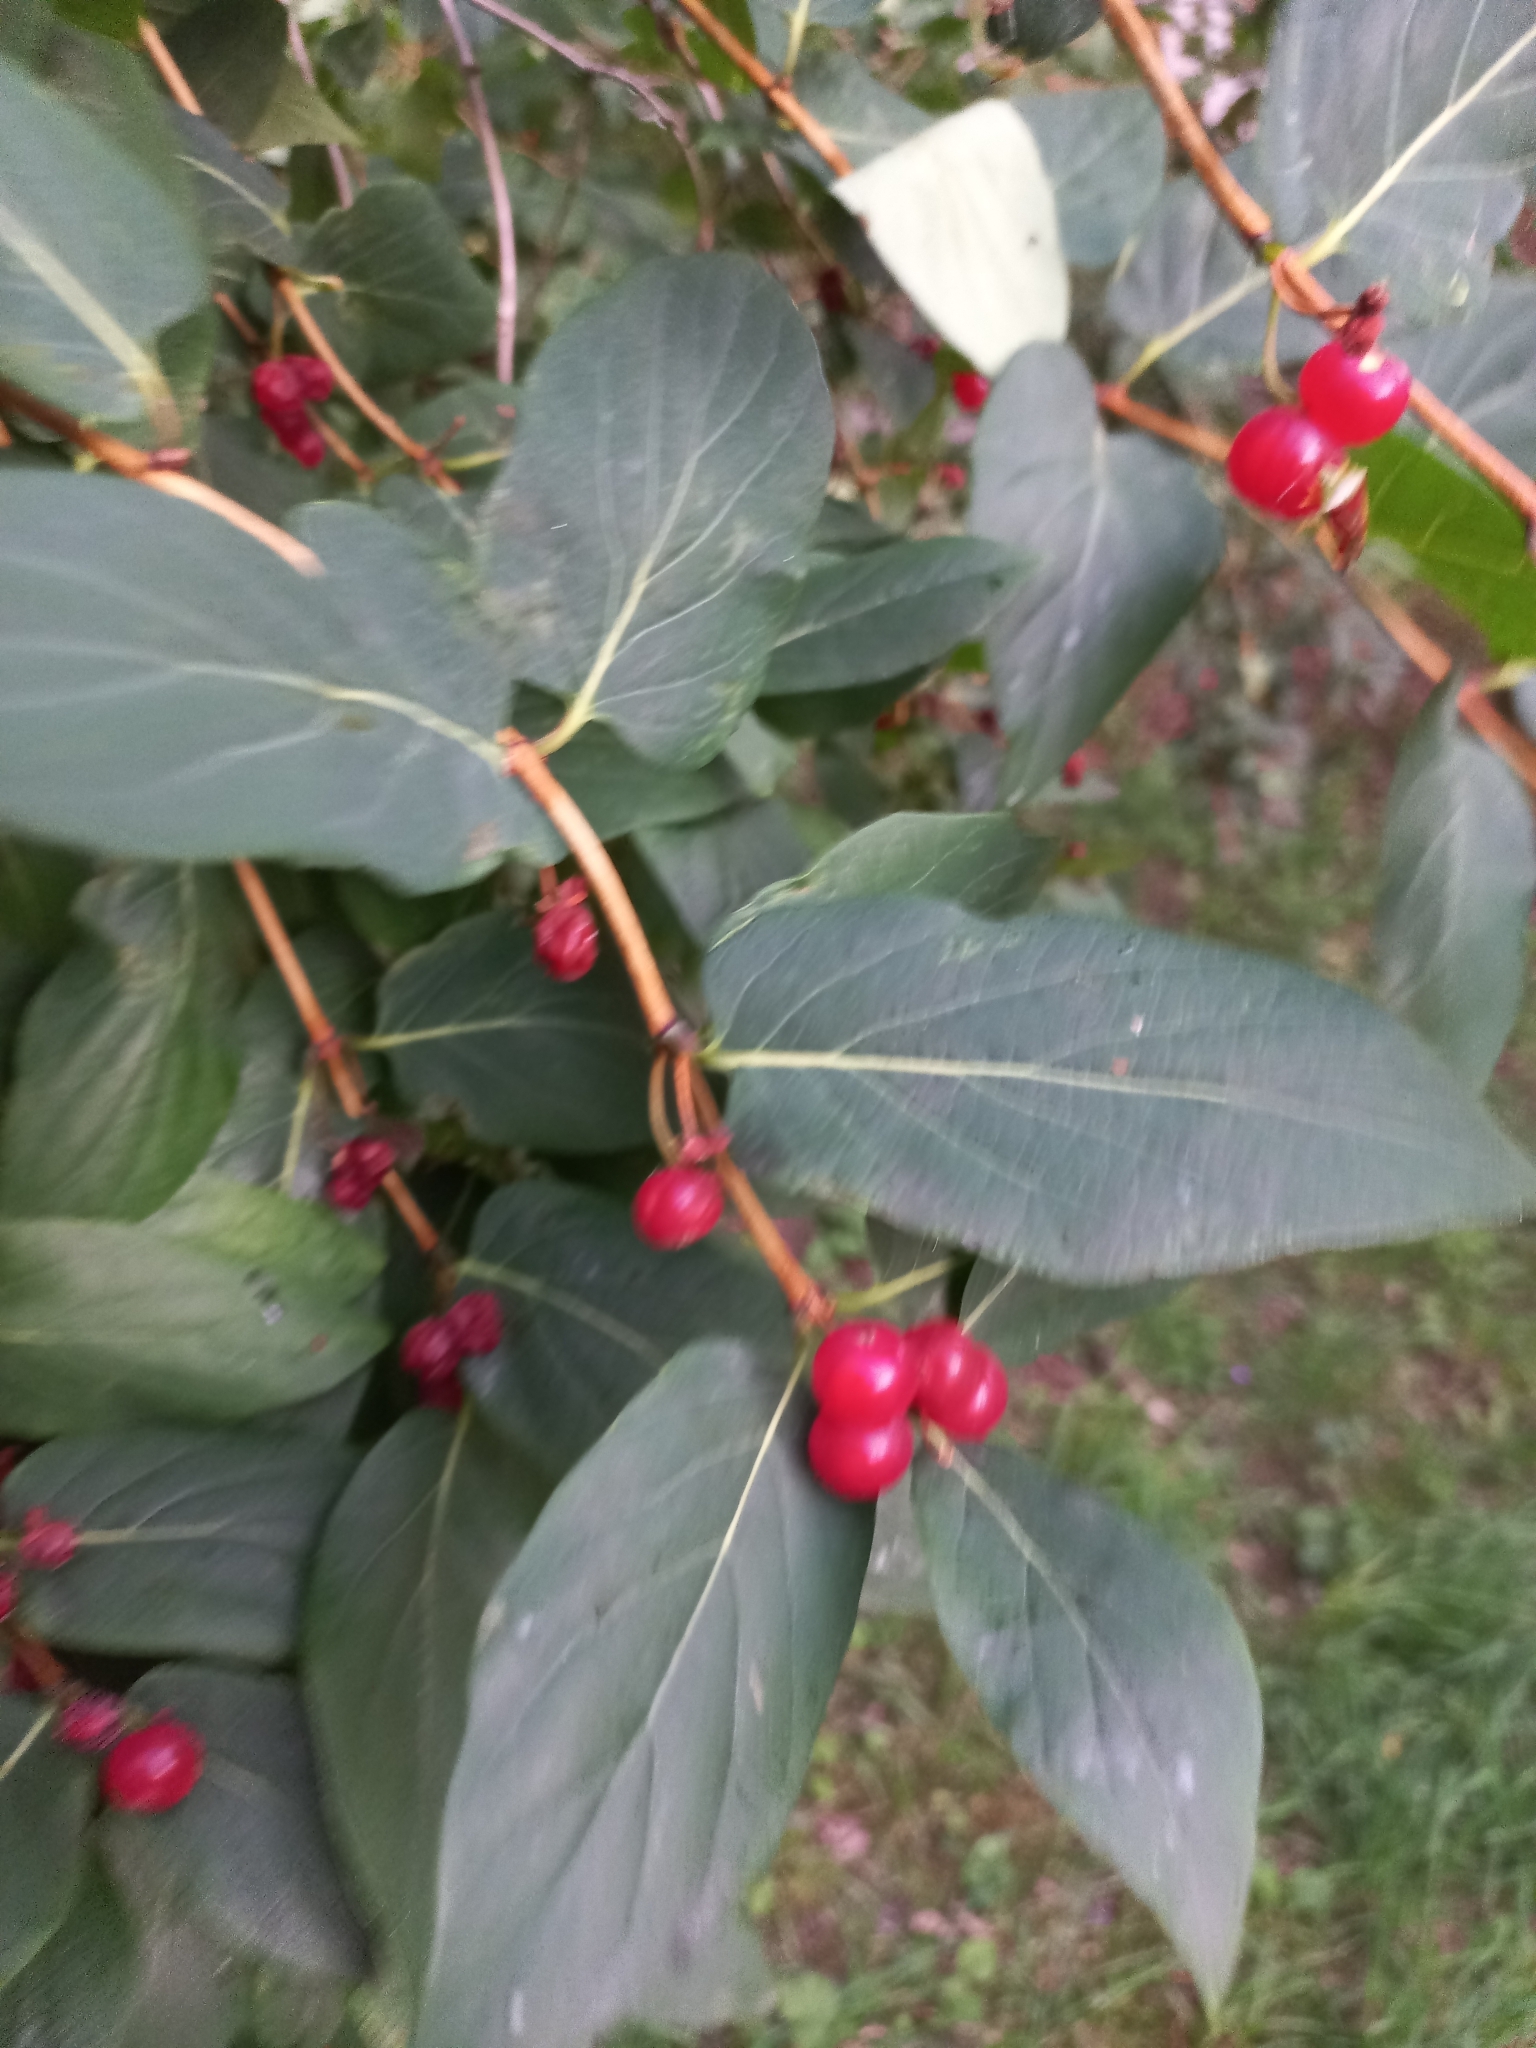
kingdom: Plantae
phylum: Tracheophyta
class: Magnoliopsida
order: Dipsacales
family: Caprifoliaceae
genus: Lonicera
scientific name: Lonicera tatarica
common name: Tatarian honeysuckle
